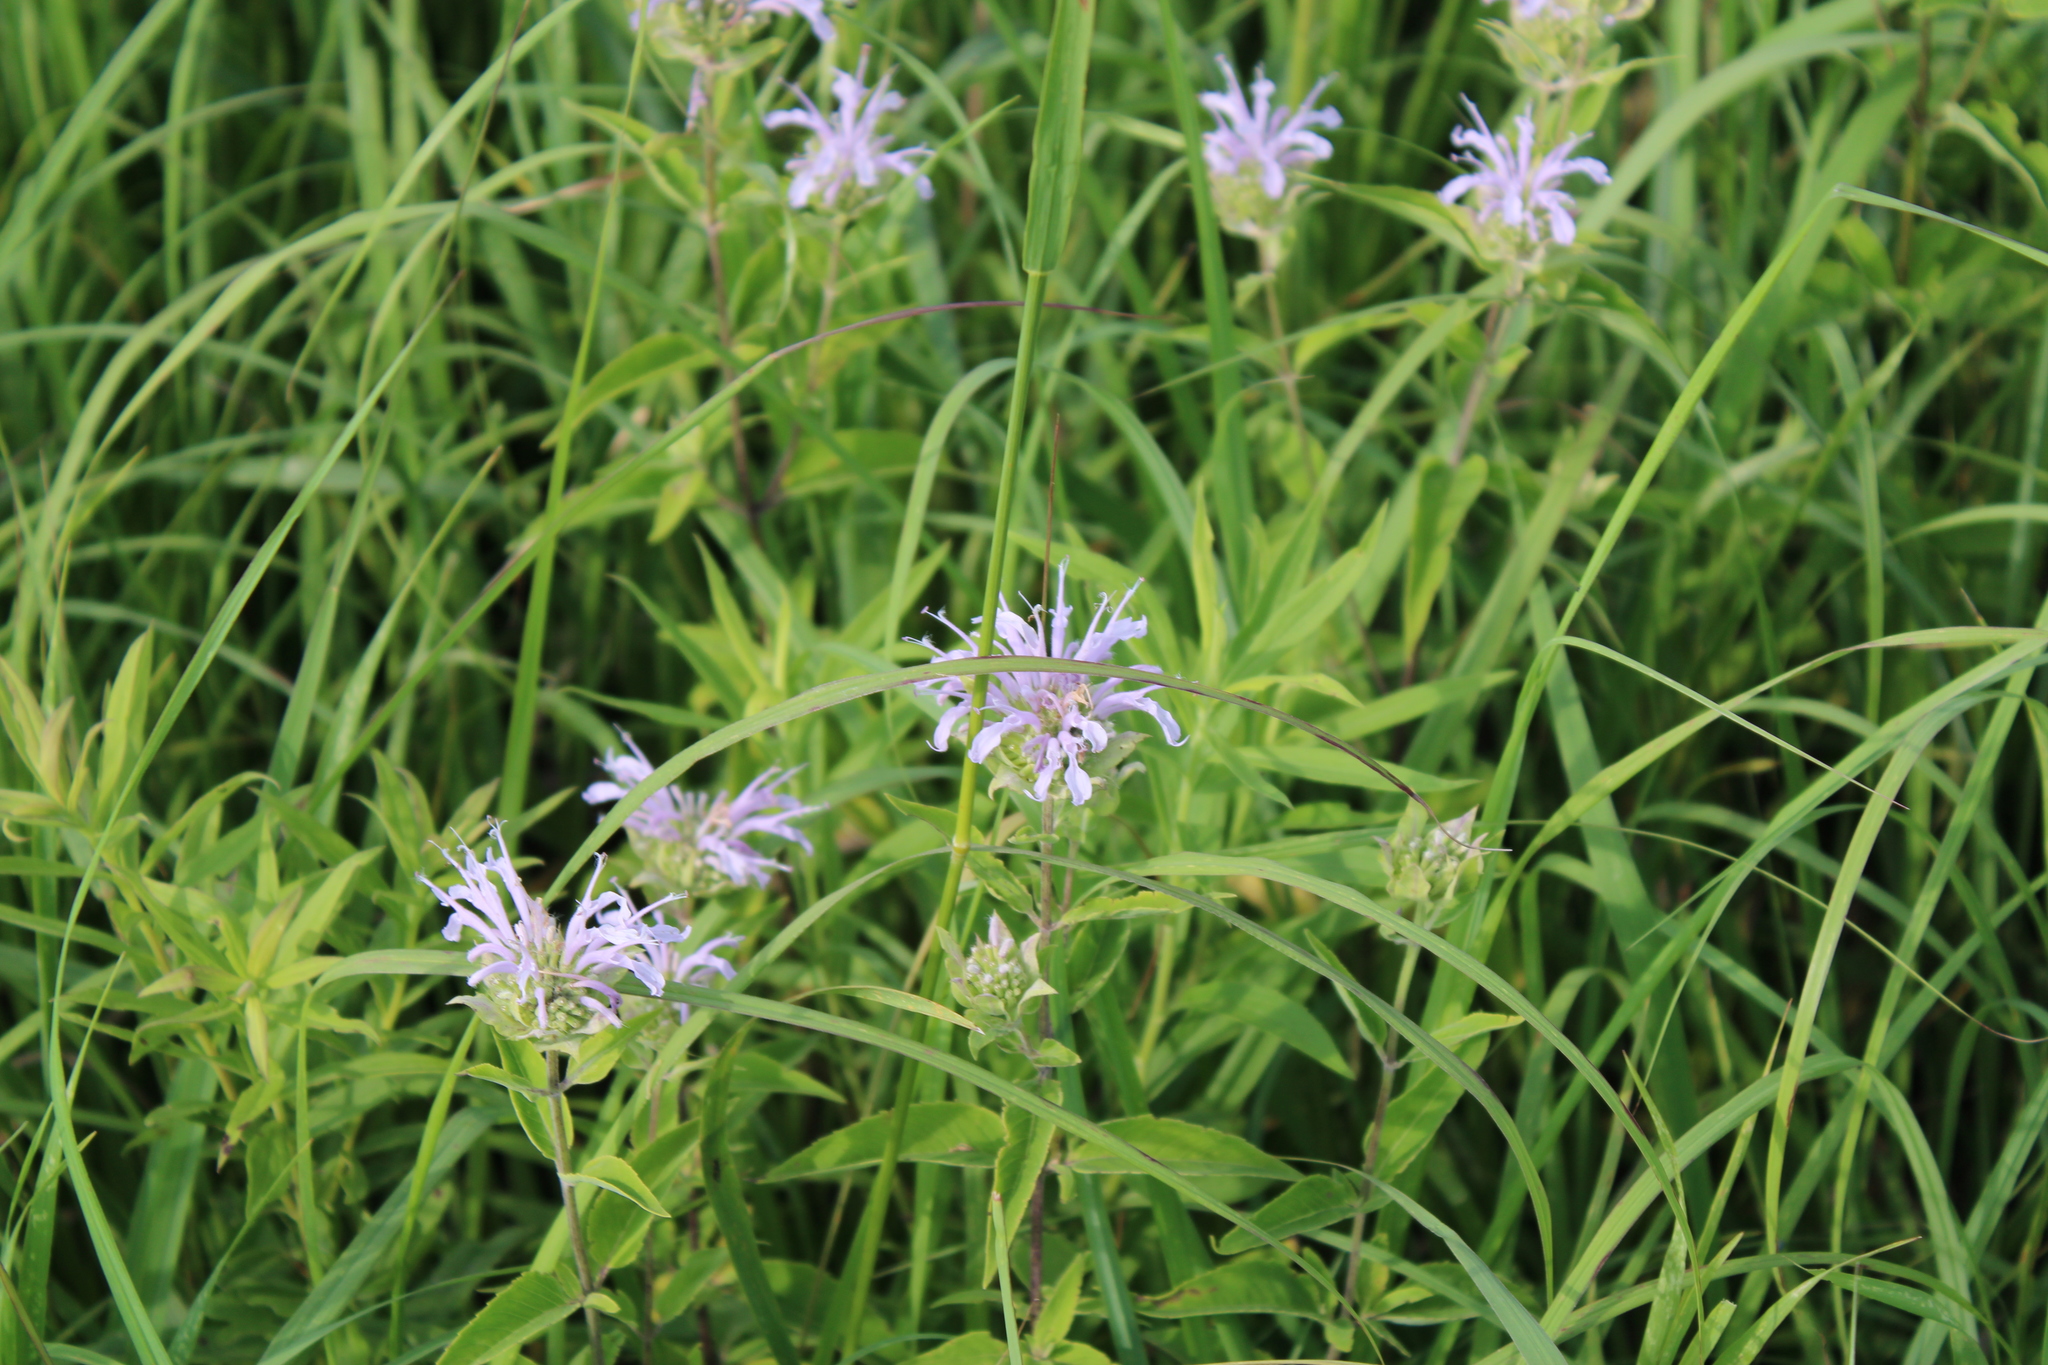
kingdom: Plantae
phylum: Tracheophyta
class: Magnoliopsida
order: Lamiales
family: Lamiaceae
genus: Monarda
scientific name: Monarda fistulosa
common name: Purple beebalm
